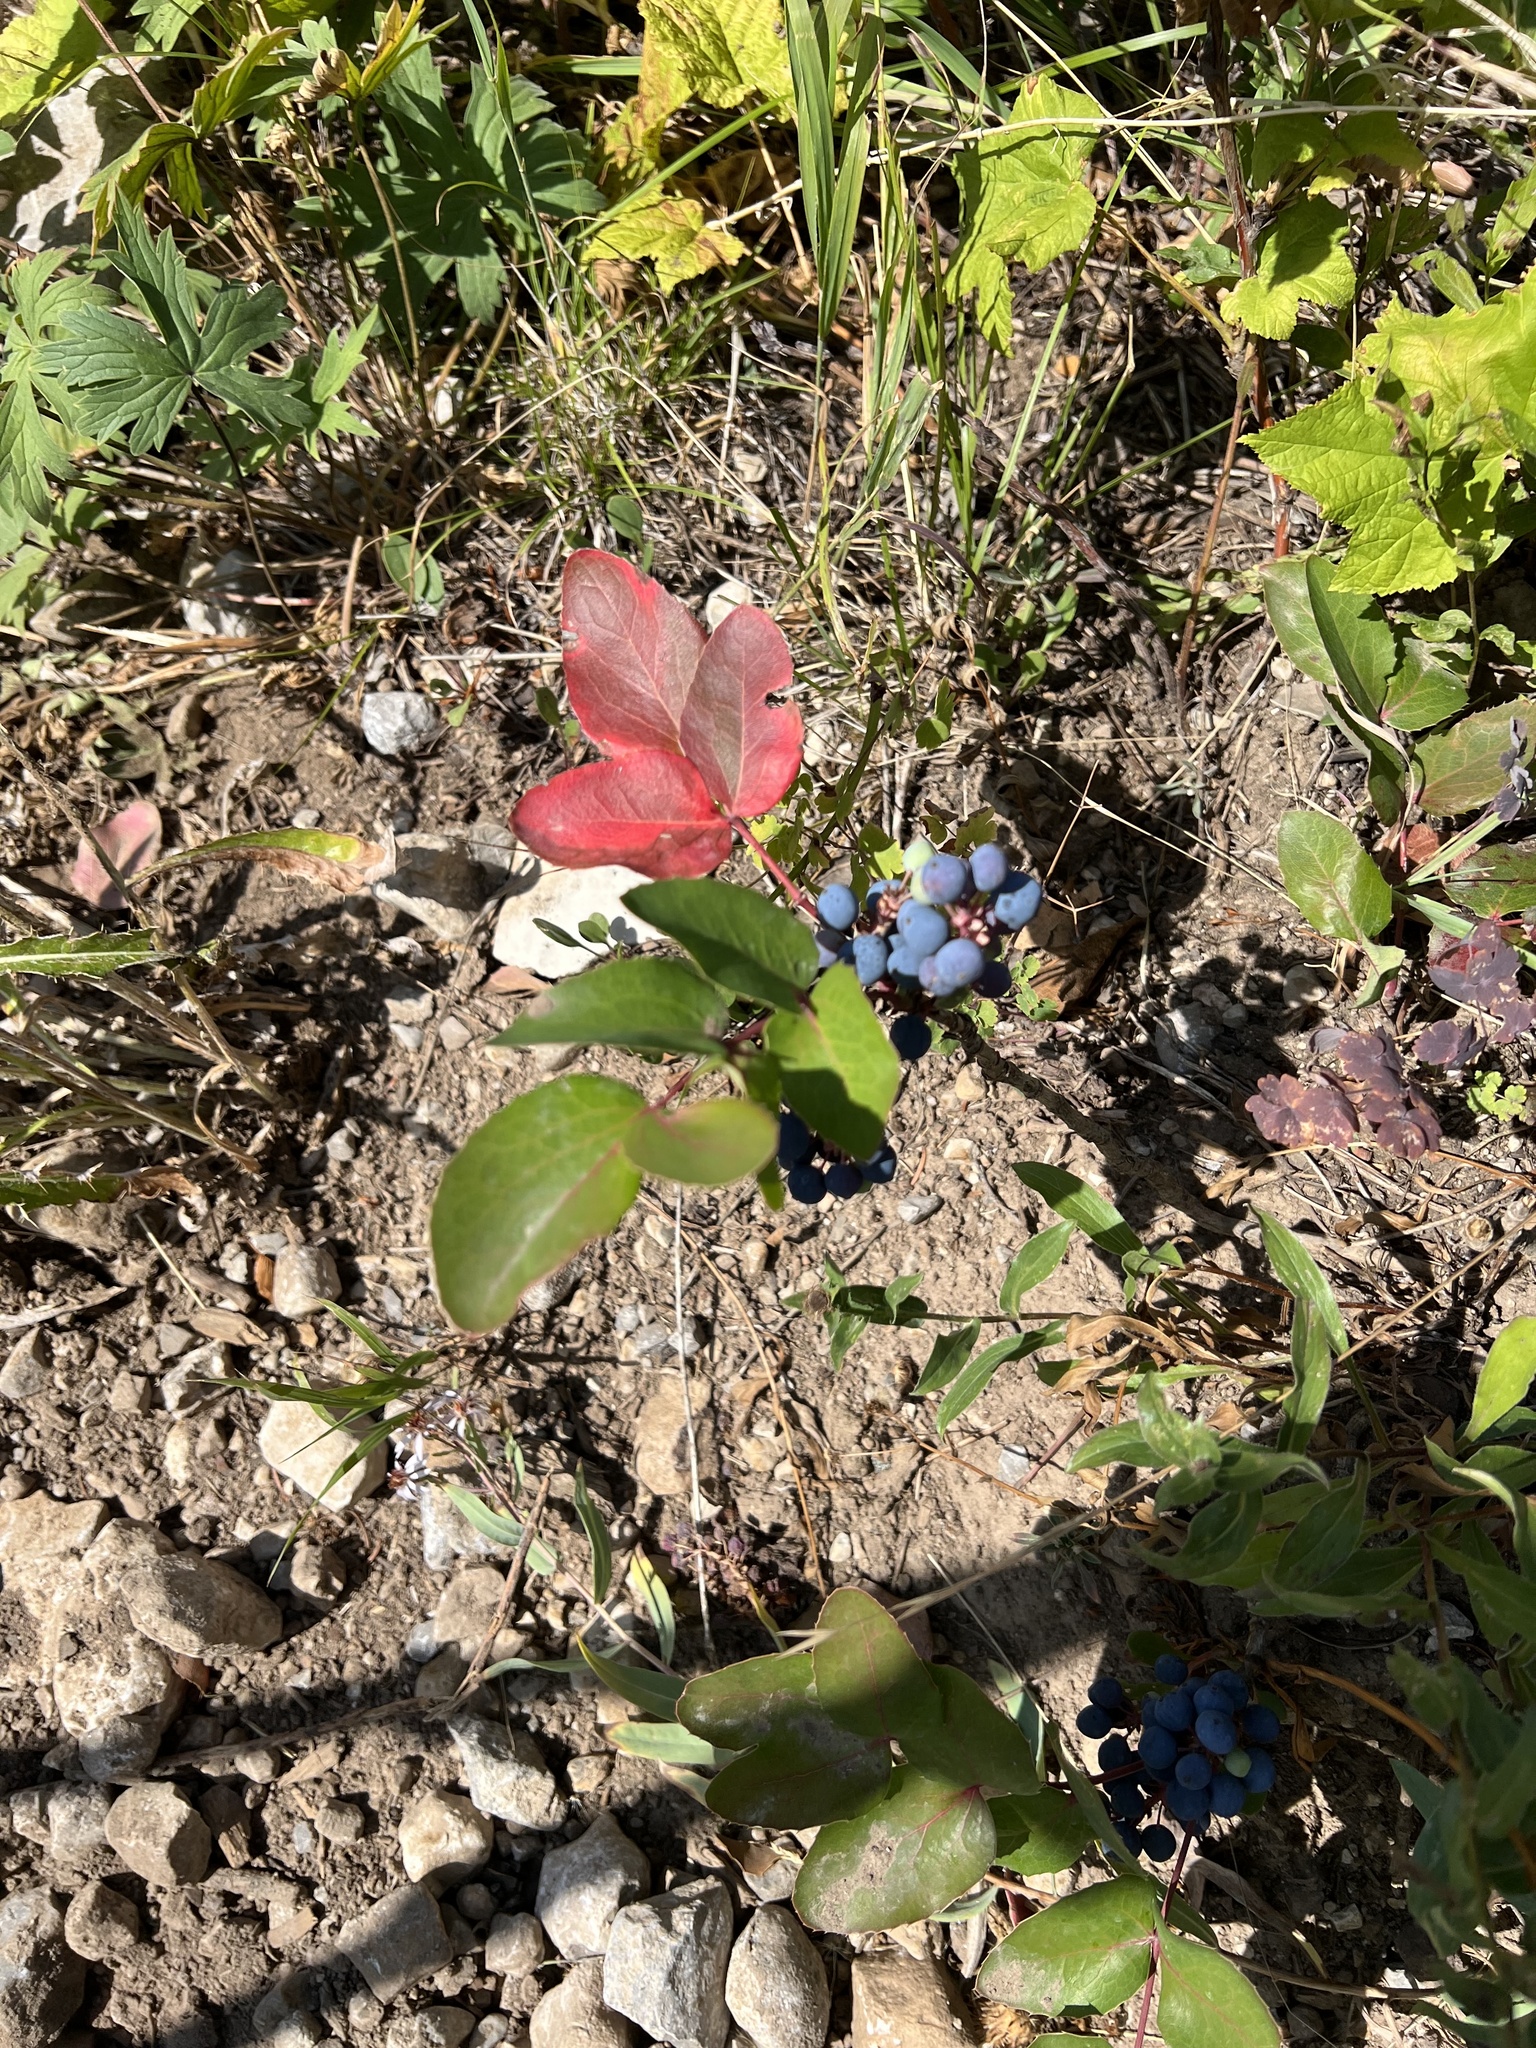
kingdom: Plantae
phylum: Tracheophyta
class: Magnoliopsida
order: Ranunculales
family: Berberidaceae
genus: Mahonia
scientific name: Mahonia repens
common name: Creeping oregon-grape
